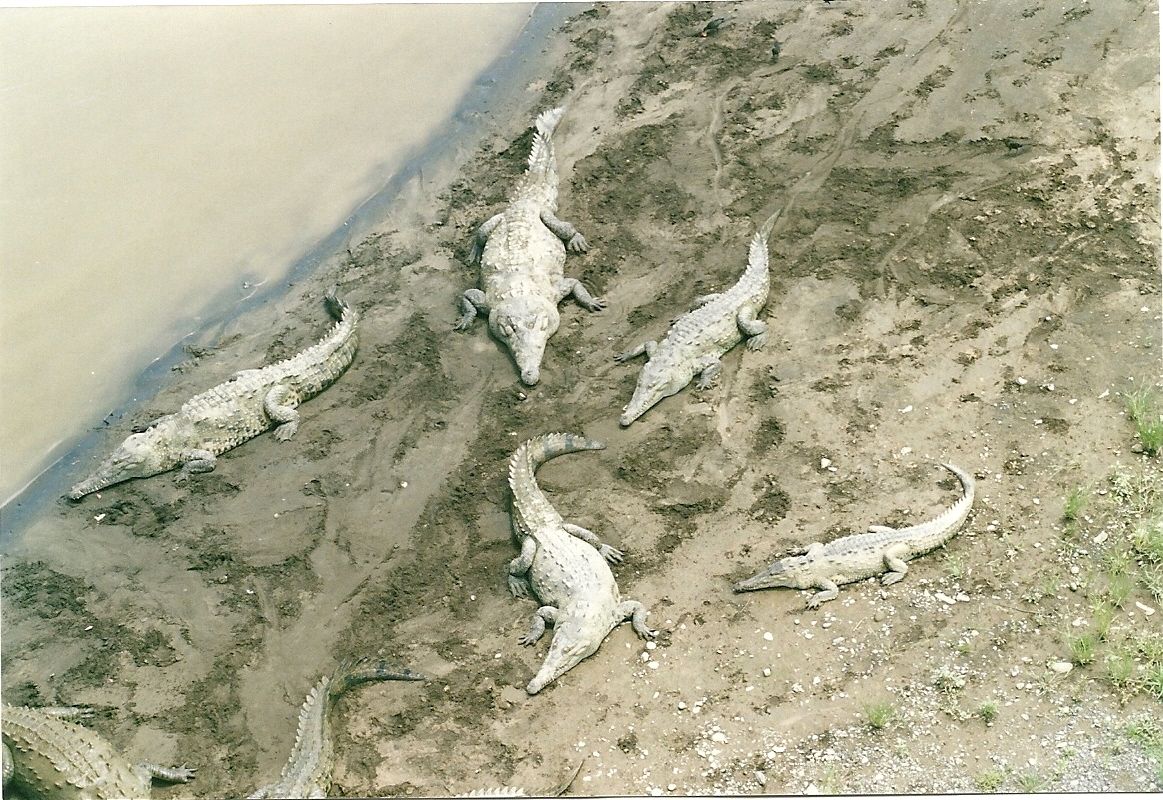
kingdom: Animalia
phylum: Chordata
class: Crocodylia
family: Crocodylidae
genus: Crocodylus
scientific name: Crocodylus acutus
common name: American crocodile
